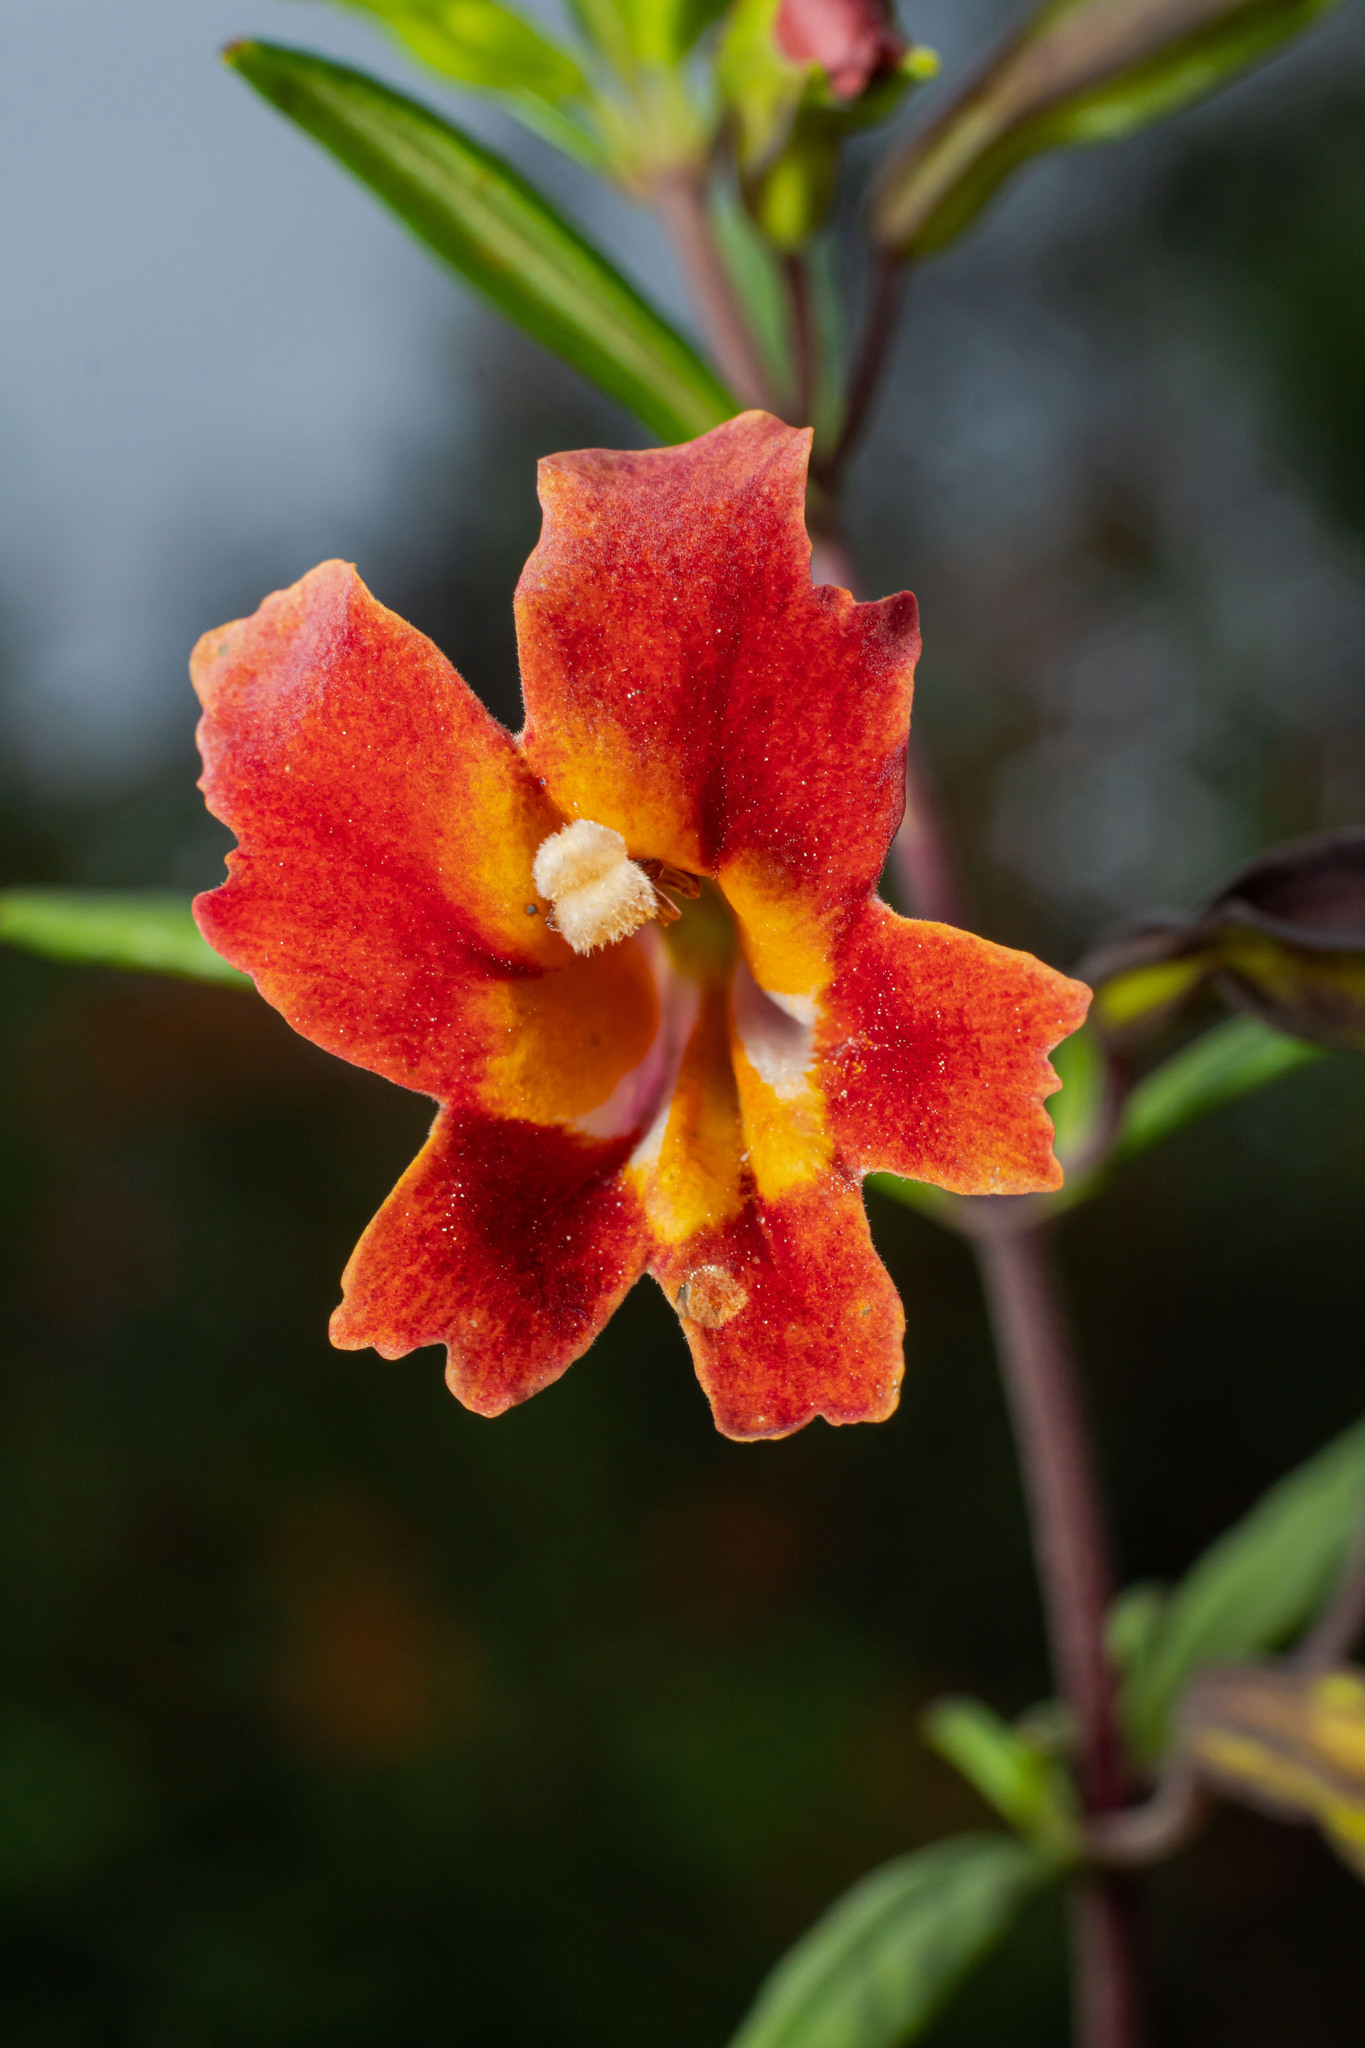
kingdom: Plantae
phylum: Tracheophyta
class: Magnoliopsida
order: Lamiales
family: Phrymaceae
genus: Diplacus
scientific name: Diplacus puniceus
